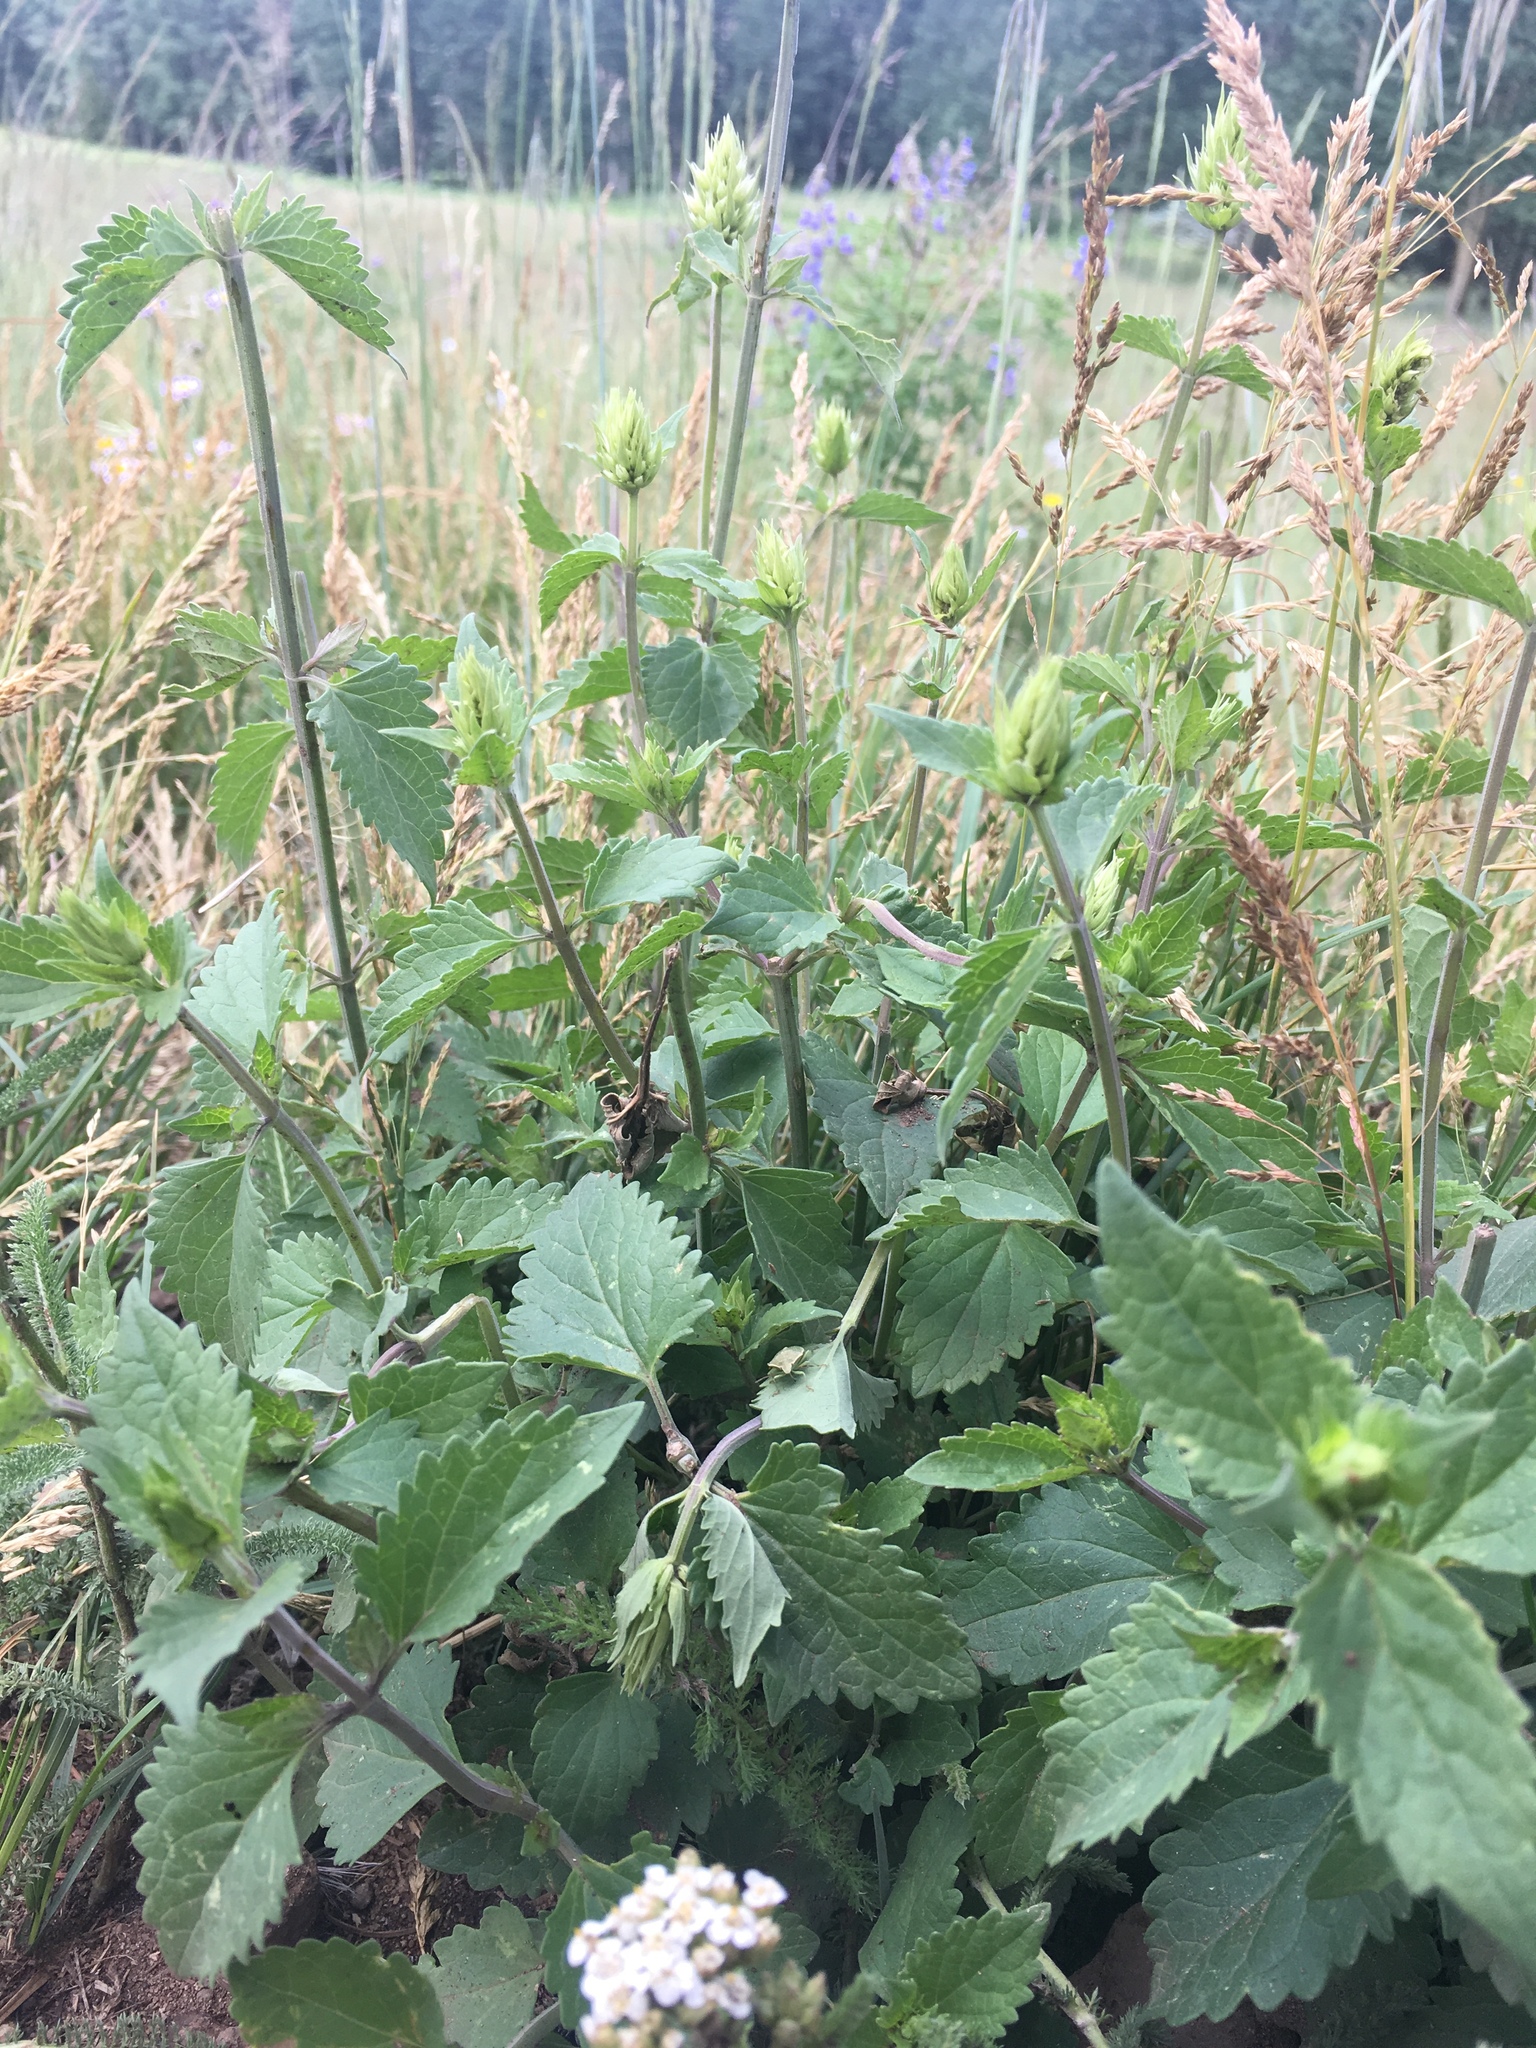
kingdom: Plantae
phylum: Tracheophyta
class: Magnoliopsida
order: Lamiales
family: Lamiaceae
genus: Agastache
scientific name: Agastache pallidiflora
